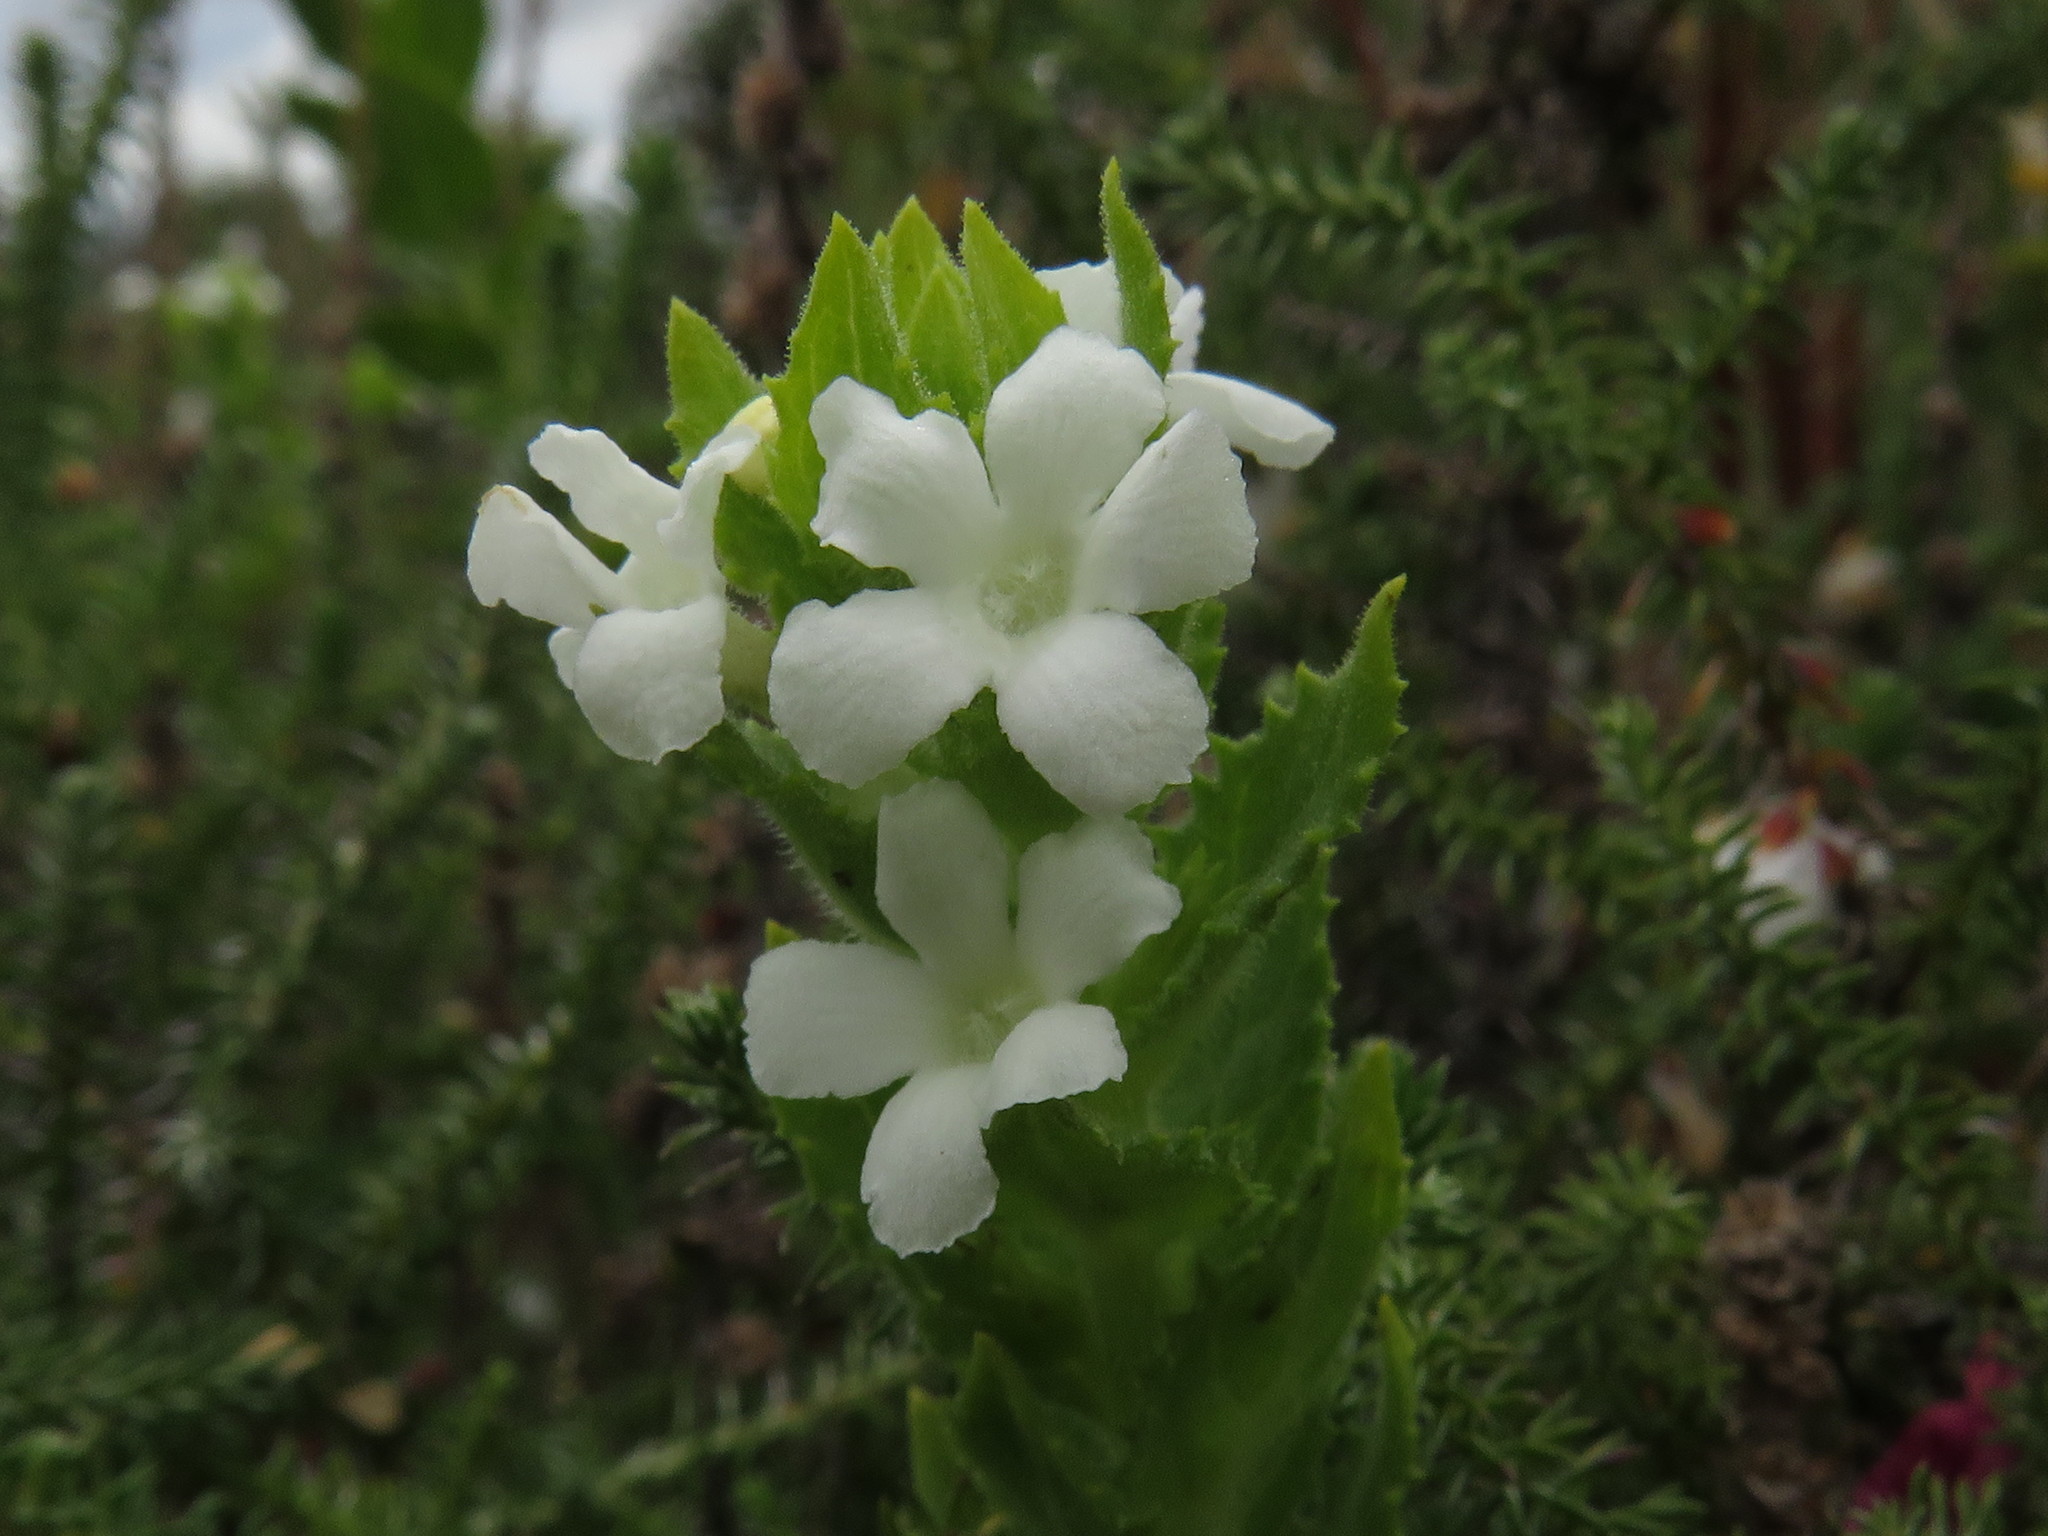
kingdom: Plantae
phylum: Tracheophyta
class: Magnoliopsida
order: Lamiales
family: Scrophulariaceae
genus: Oftia
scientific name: Oftia africana
